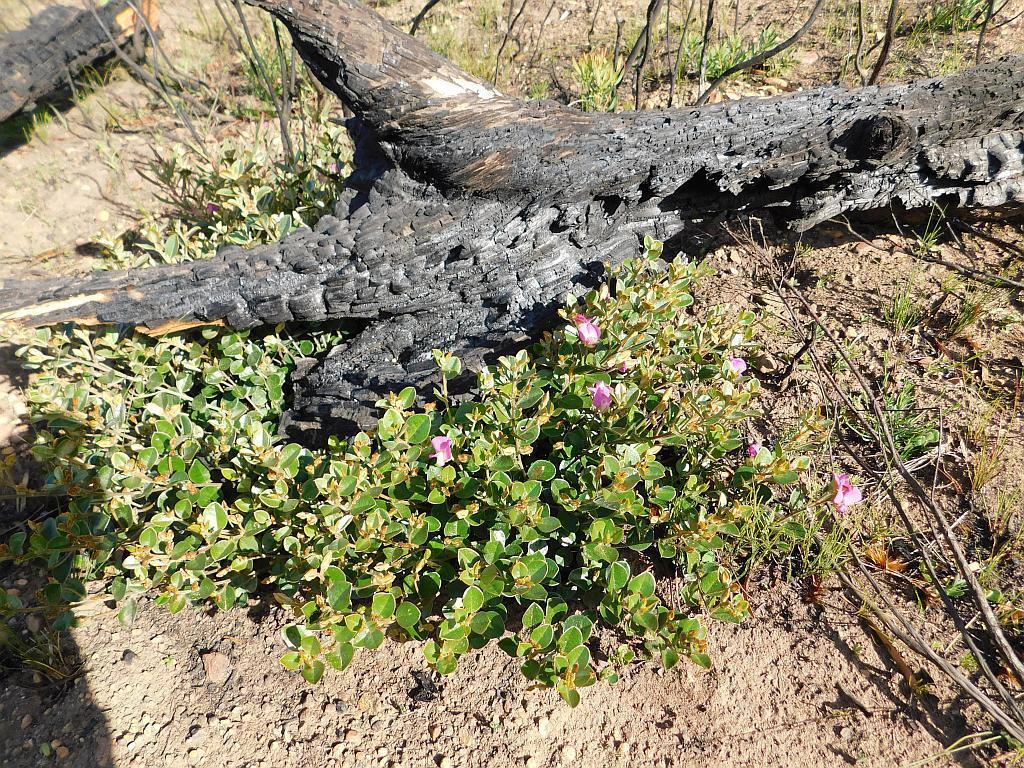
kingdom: Plantae
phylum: Tracheophyta
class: Magnoliopsida
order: Fabales
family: Fabaceae
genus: Podalyria
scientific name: Podalyria biflora
